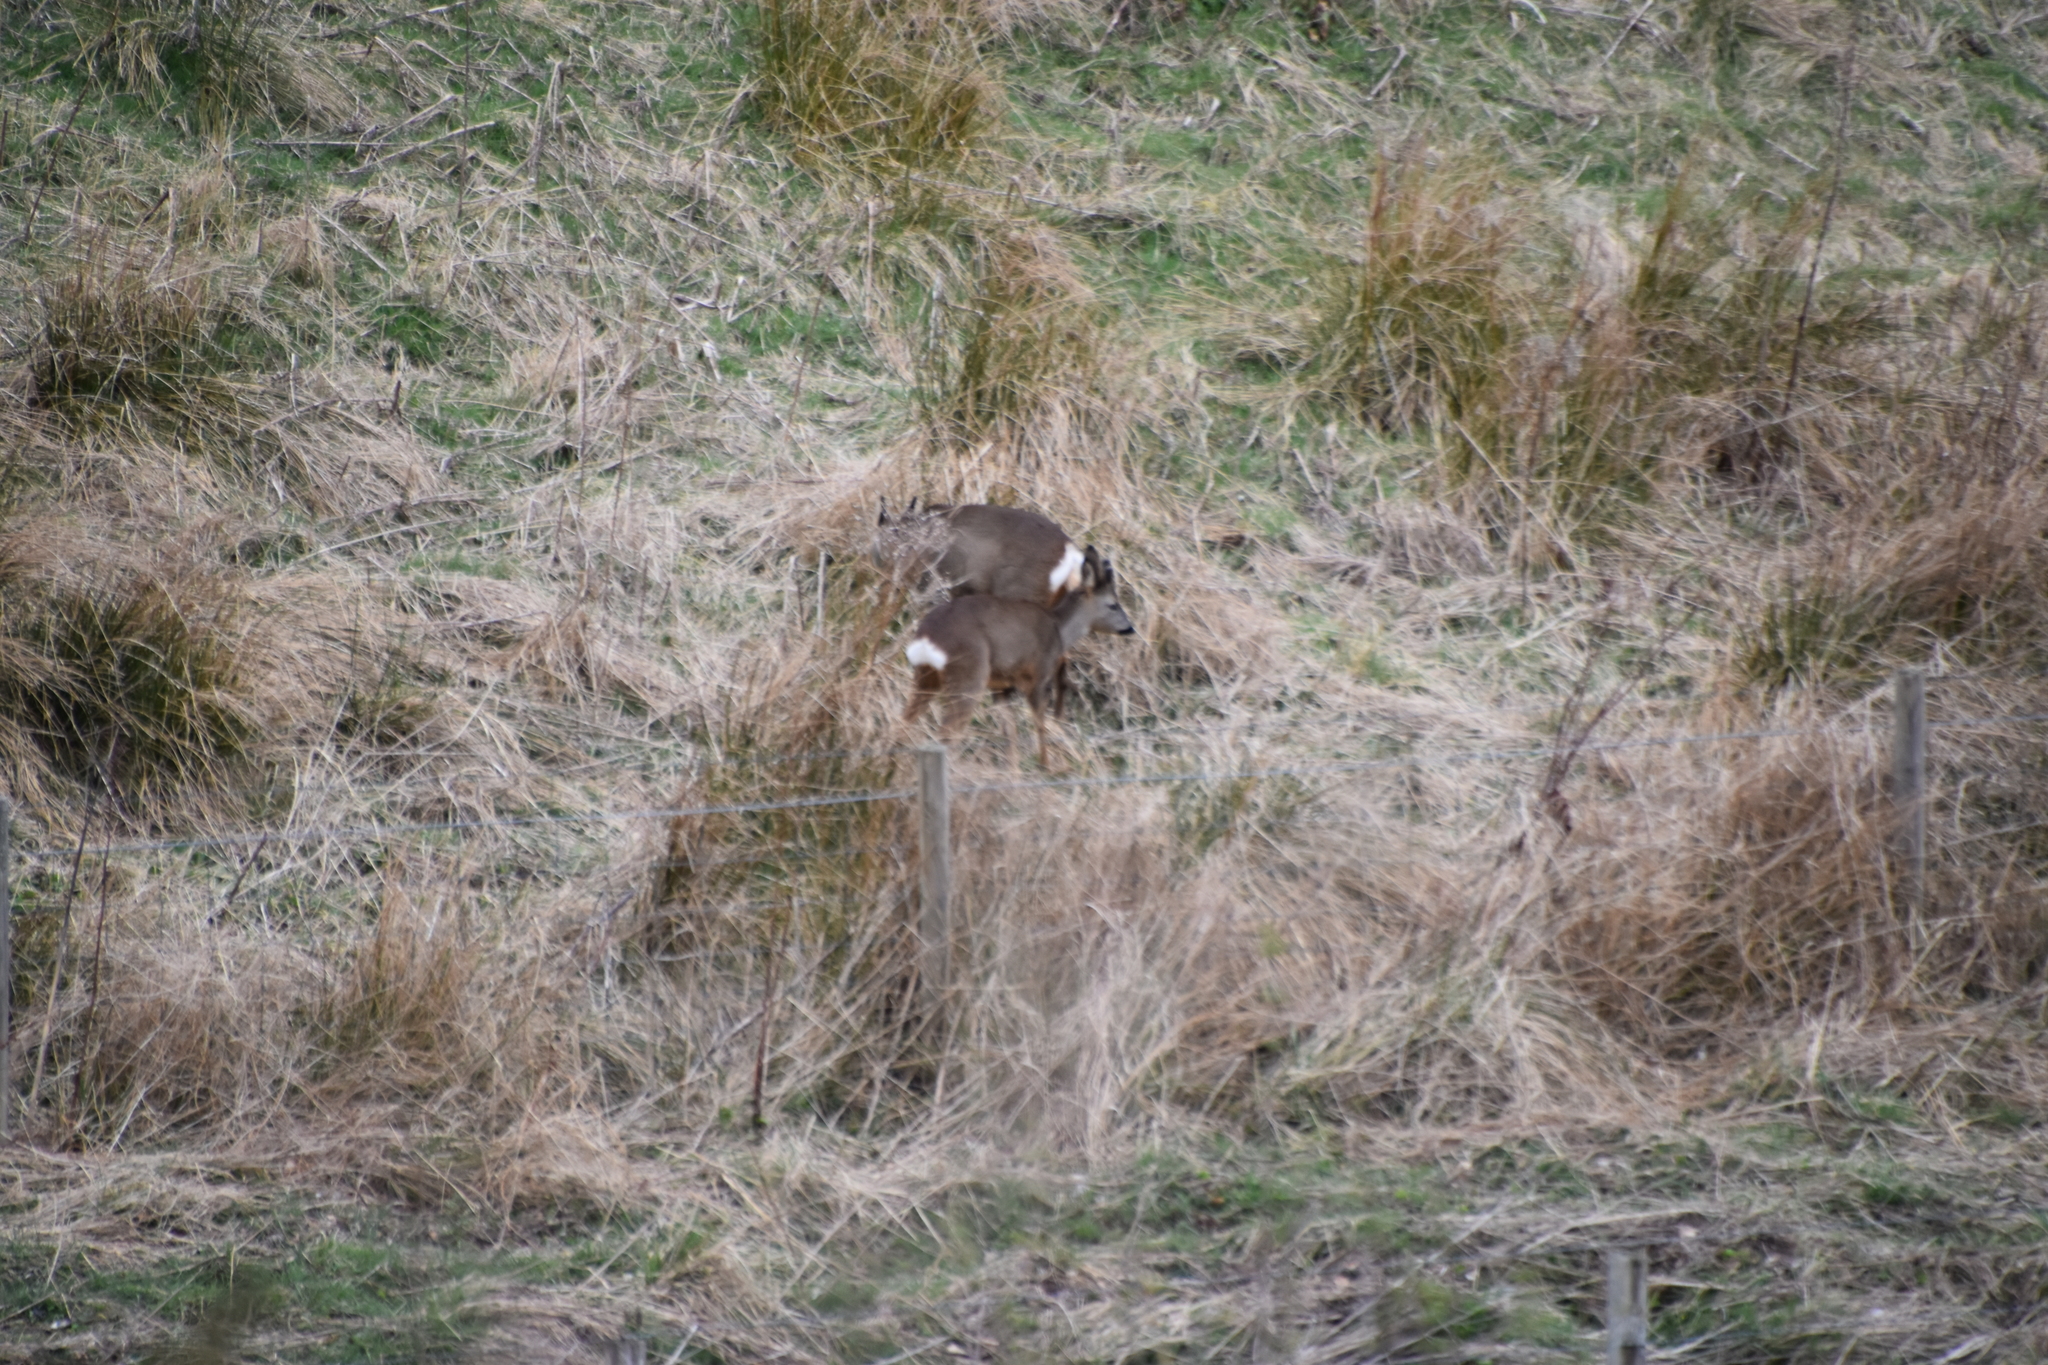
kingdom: Animalia
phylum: Chordata
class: Mammalia
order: Artiodactyla
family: Cervidae
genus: Capreolus
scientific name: Capreolus capreolus
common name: Western roe deer
